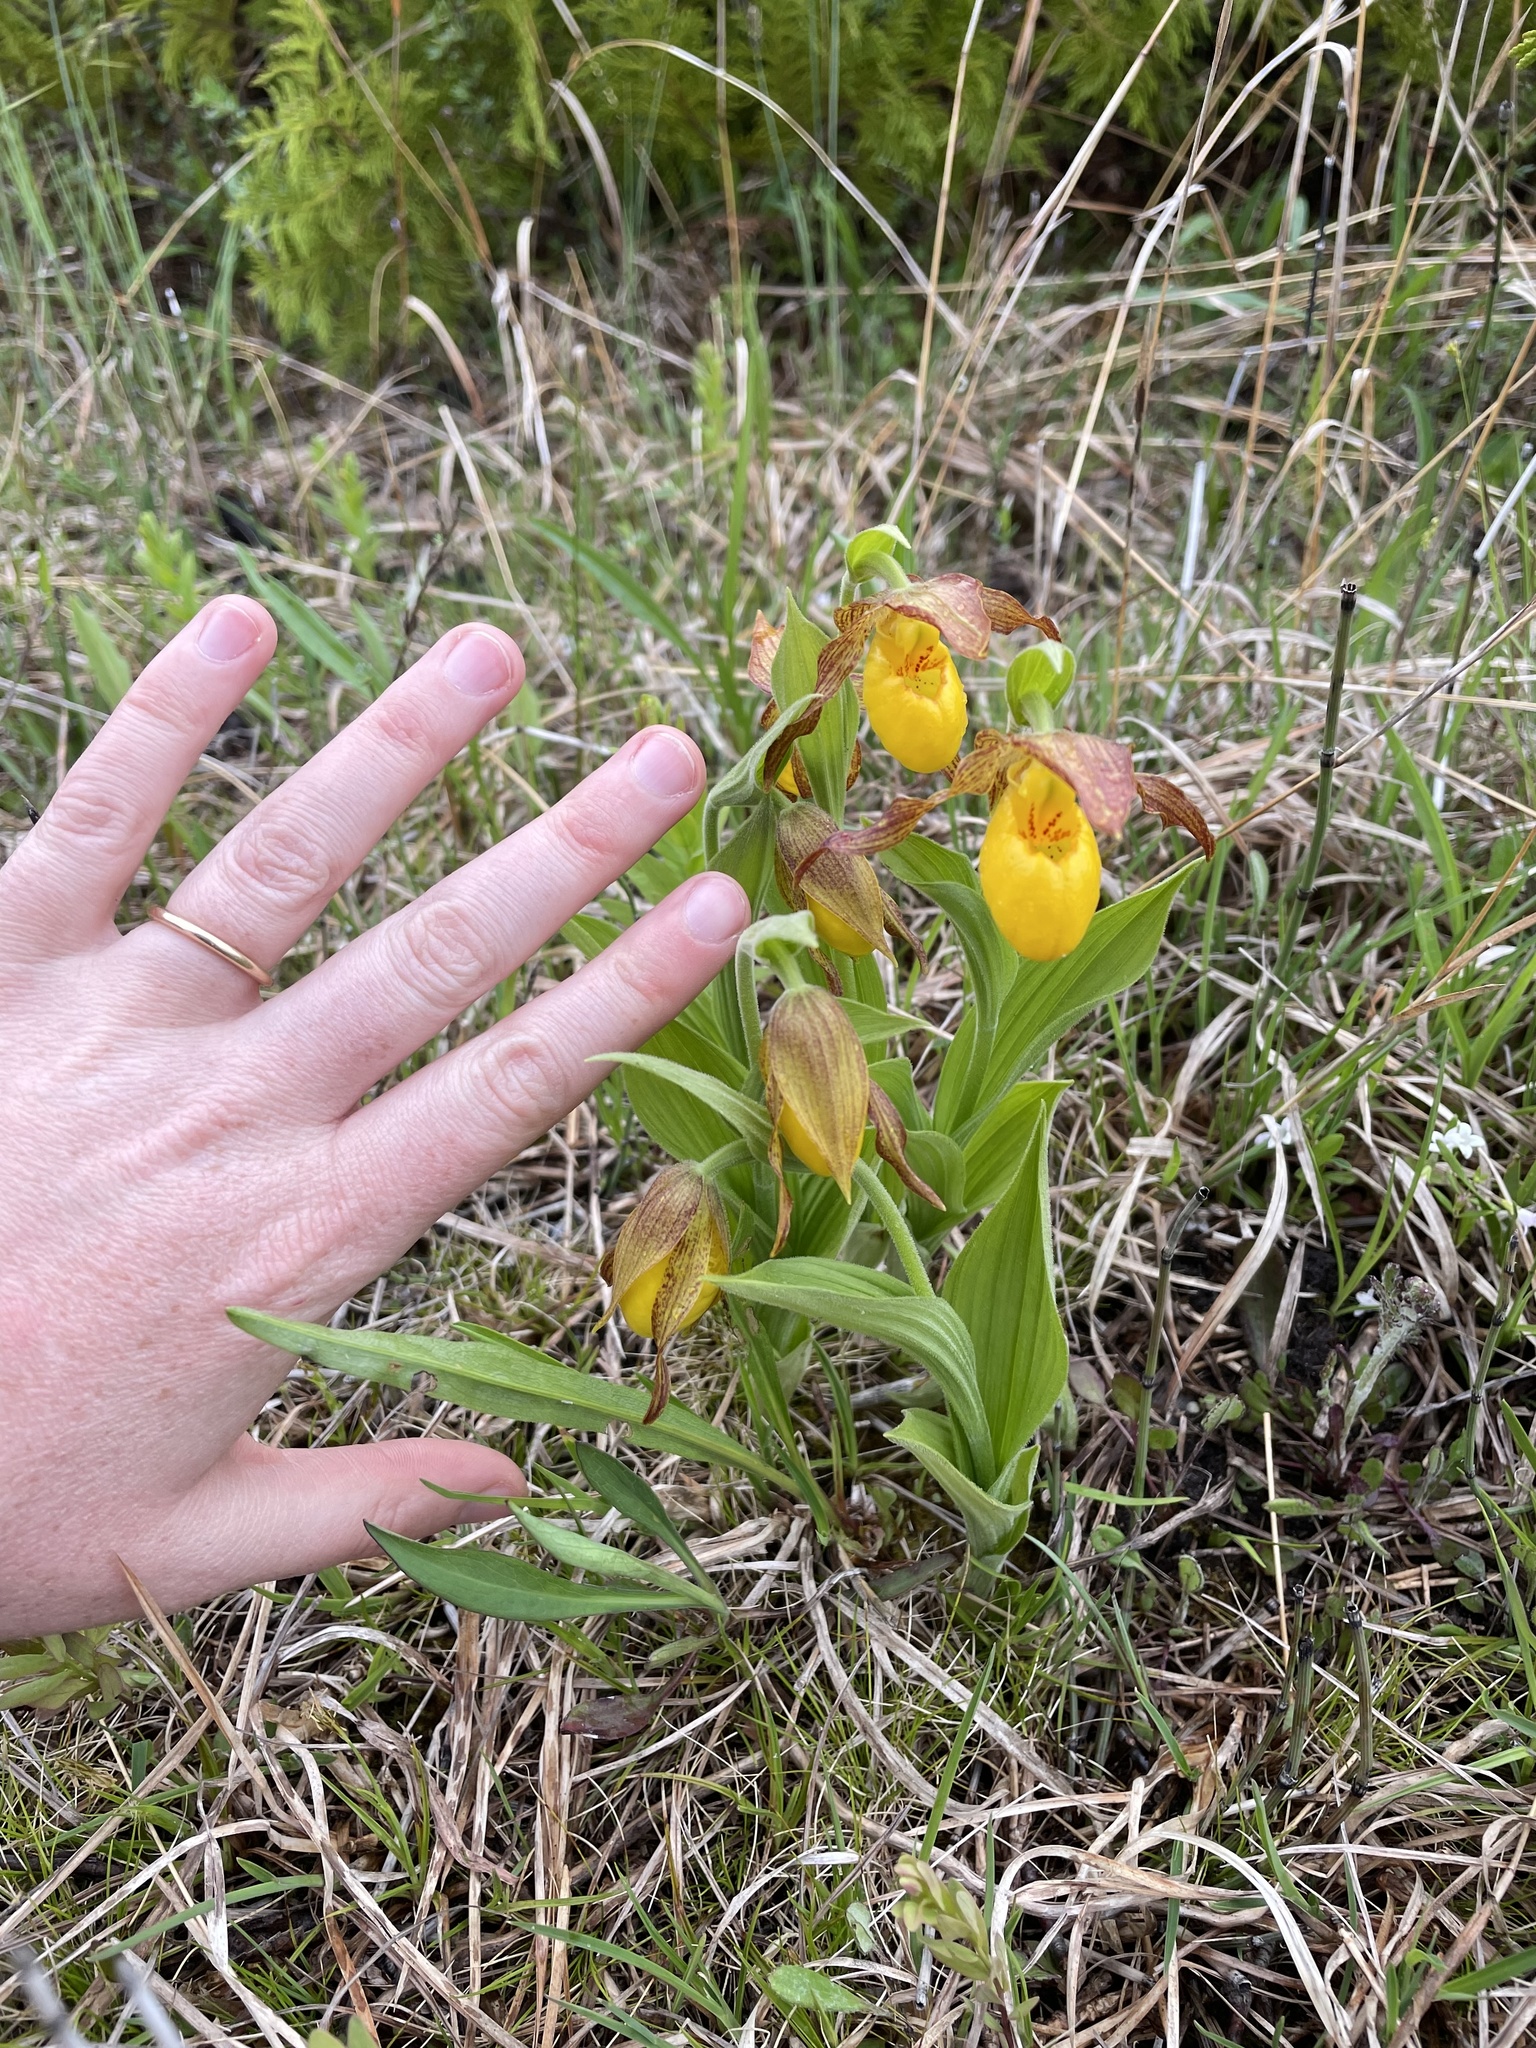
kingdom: Plantae
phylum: Tracheophyta
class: Liliopsida
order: Asparagales
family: Orchidaceae
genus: Cypripedium
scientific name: Cypripedium parviflorum
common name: American yellow lady's-slipper
